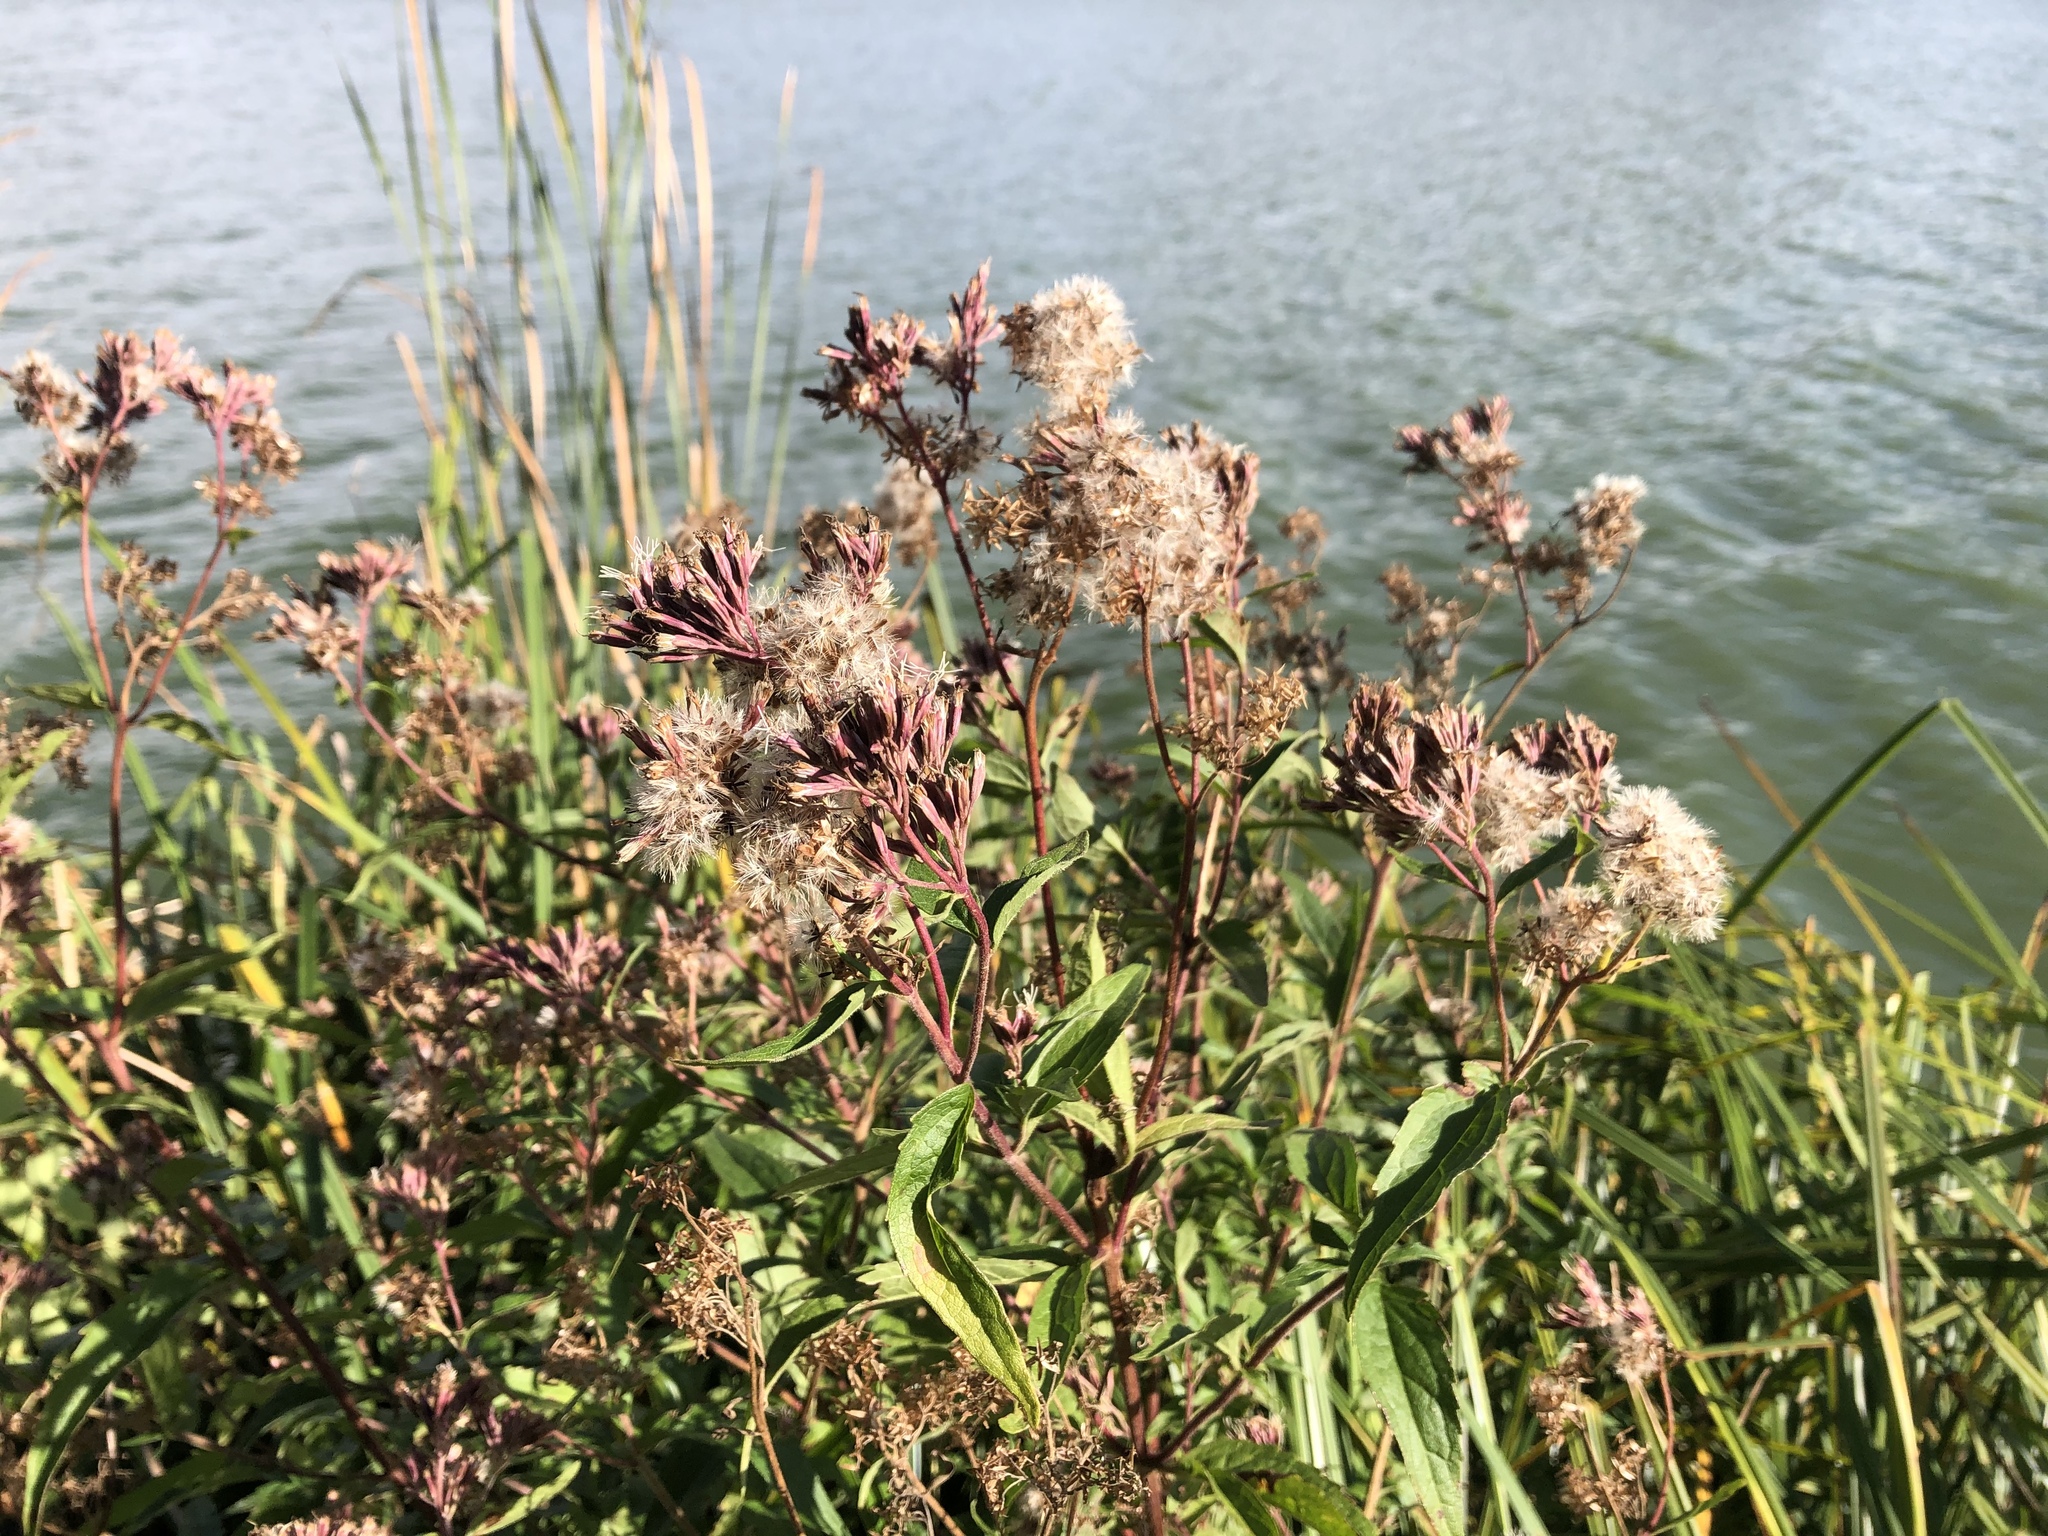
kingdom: Plantae
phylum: Tracheophyta
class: Magnoliopsida
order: Asterales
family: Asteraceae
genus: Eupatorium
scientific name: Eupatorium cannabinum
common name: Hemp-agrimony
